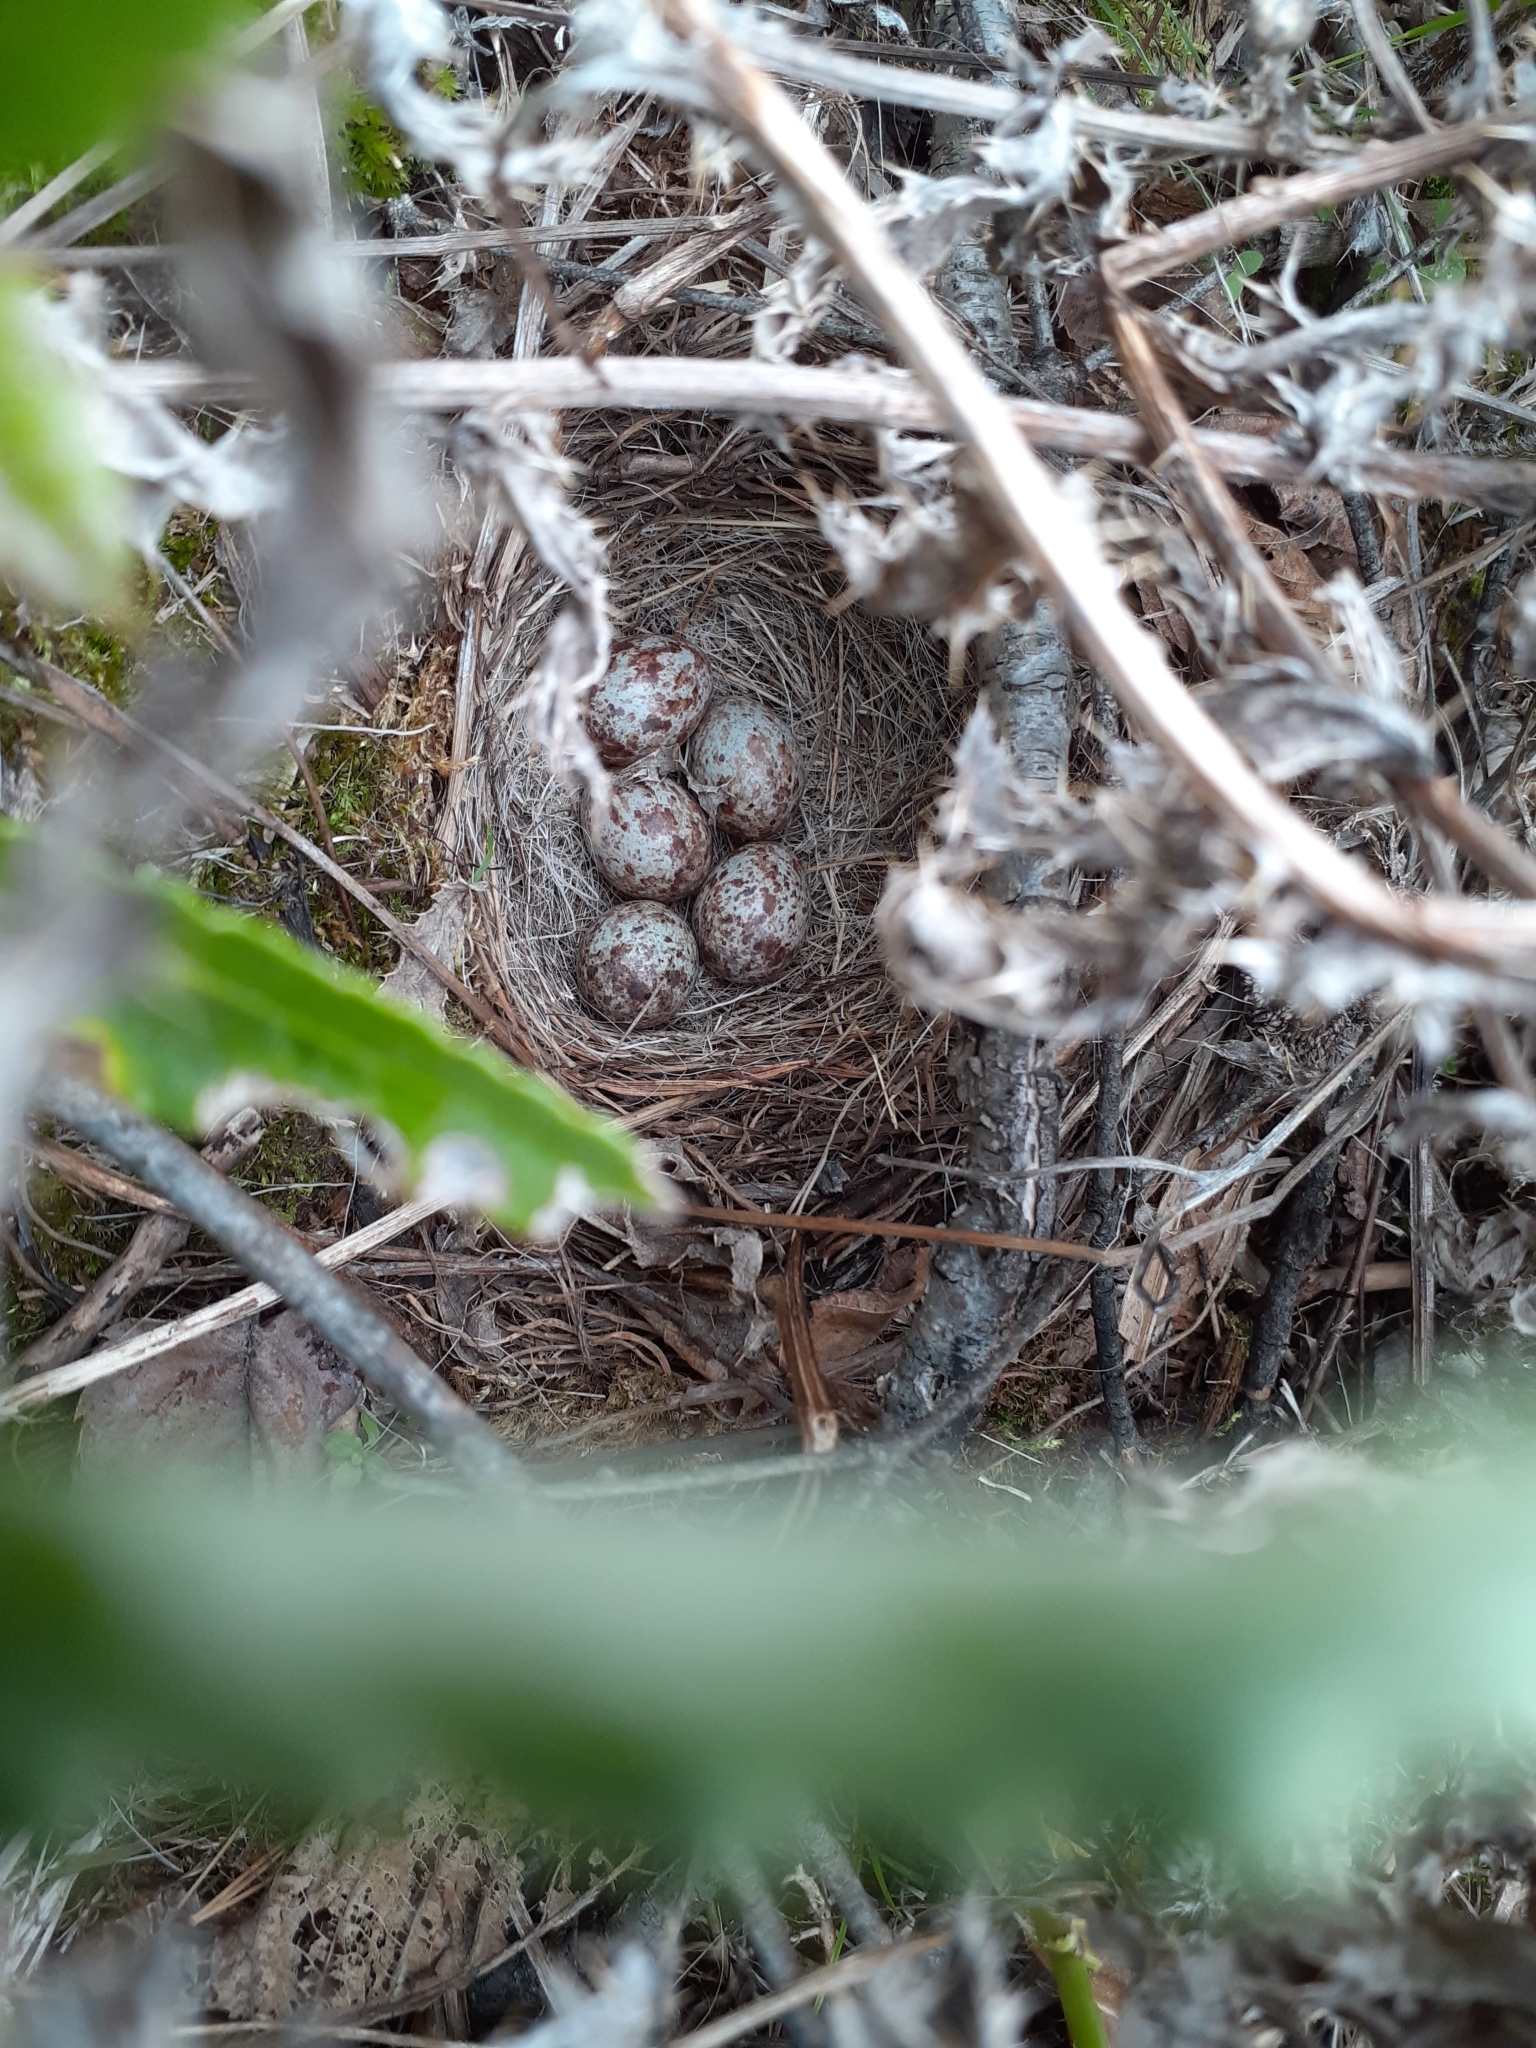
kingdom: Animalia
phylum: Chordata
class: Aves
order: Passeriformes
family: Passerellidae
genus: Melospiza
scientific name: Melospiza melodia
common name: Song sparrow
